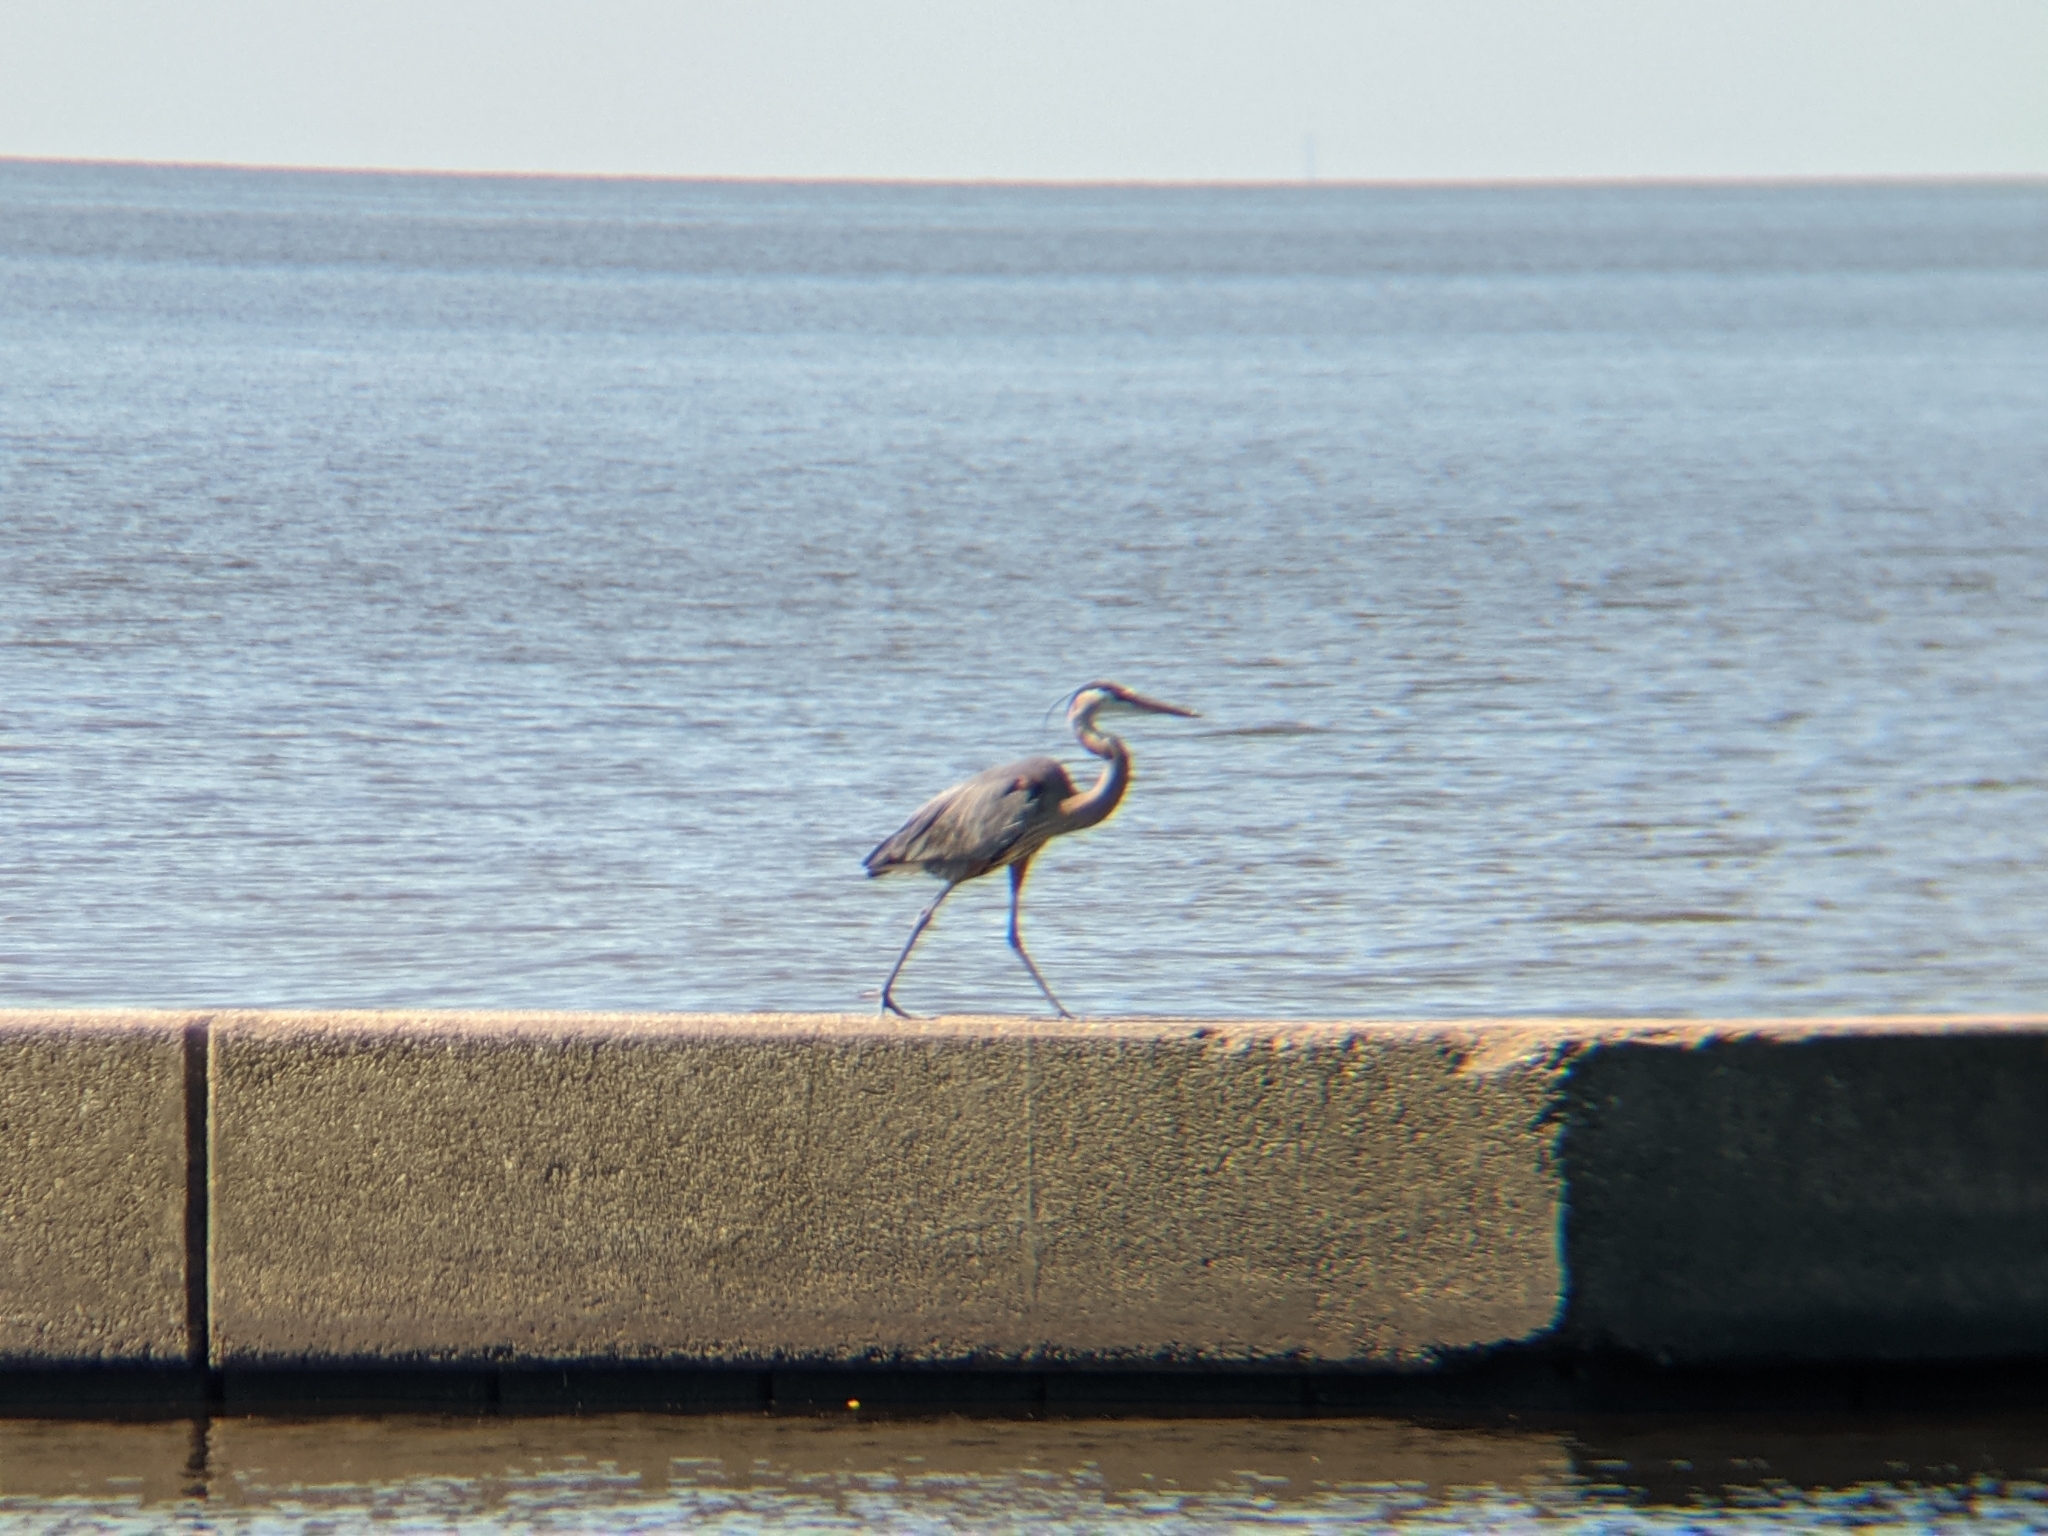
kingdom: Animalia
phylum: Chordata
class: Aves
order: Pelecaniformes
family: Ardeidae
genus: Ardea
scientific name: Ardea herodias
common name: Great blue heron
